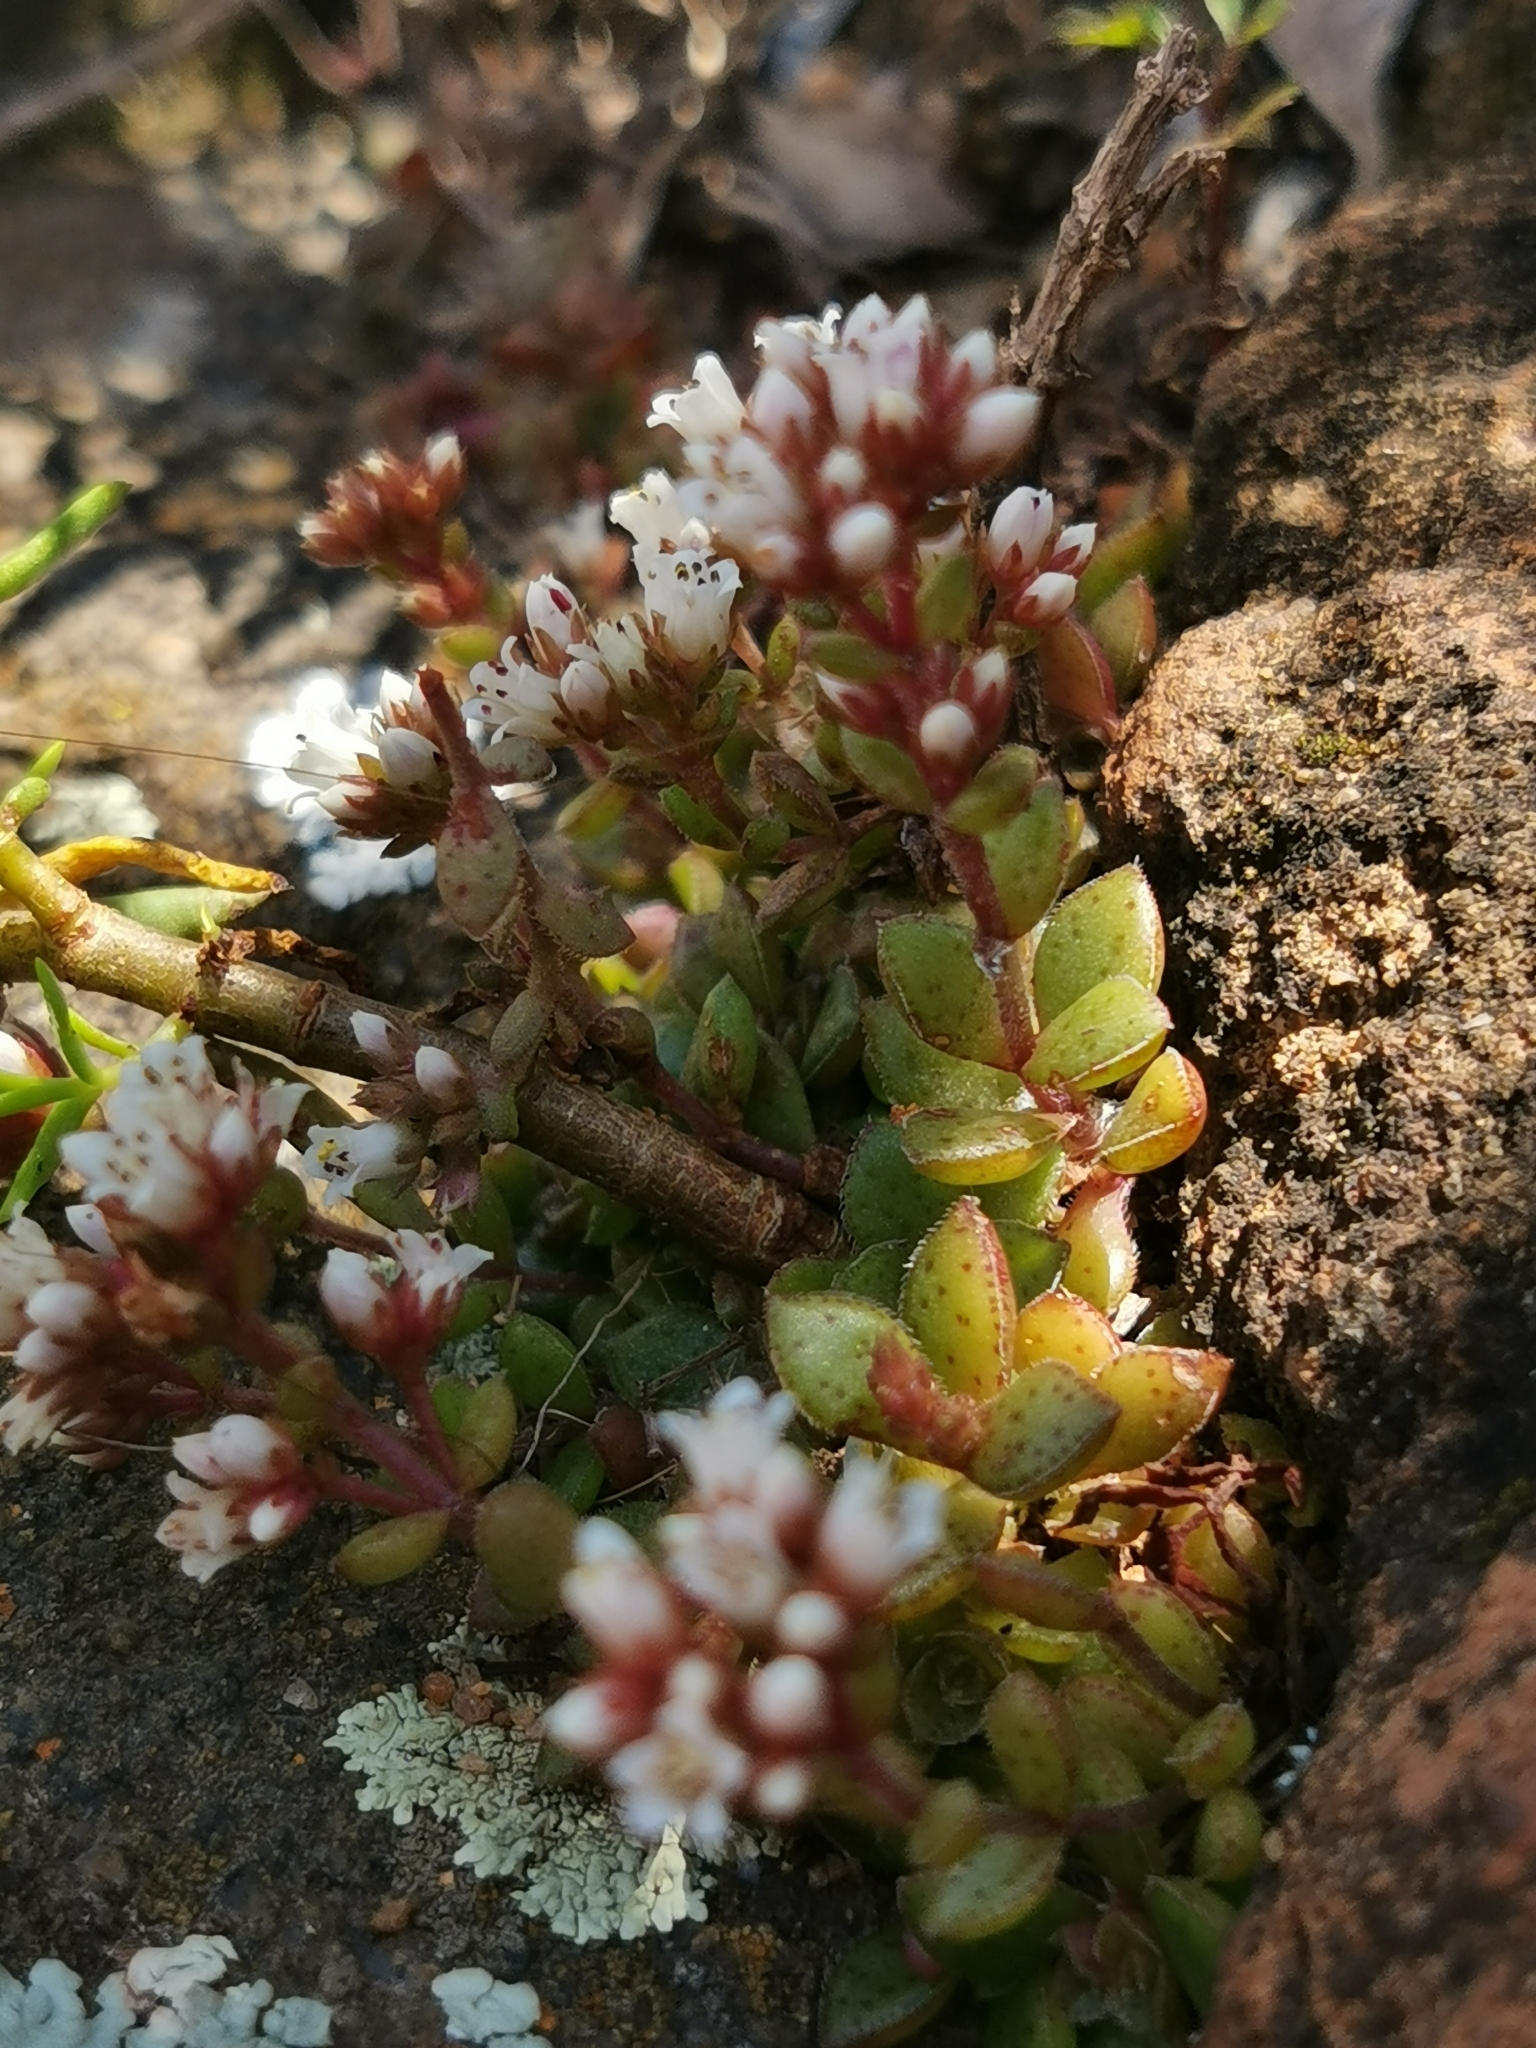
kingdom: Plantae
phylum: Tracheophyta
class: Magnoliopsida
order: Saxifragales
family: Crassulaceae
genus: Crassula
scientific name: Crassula setulosa
